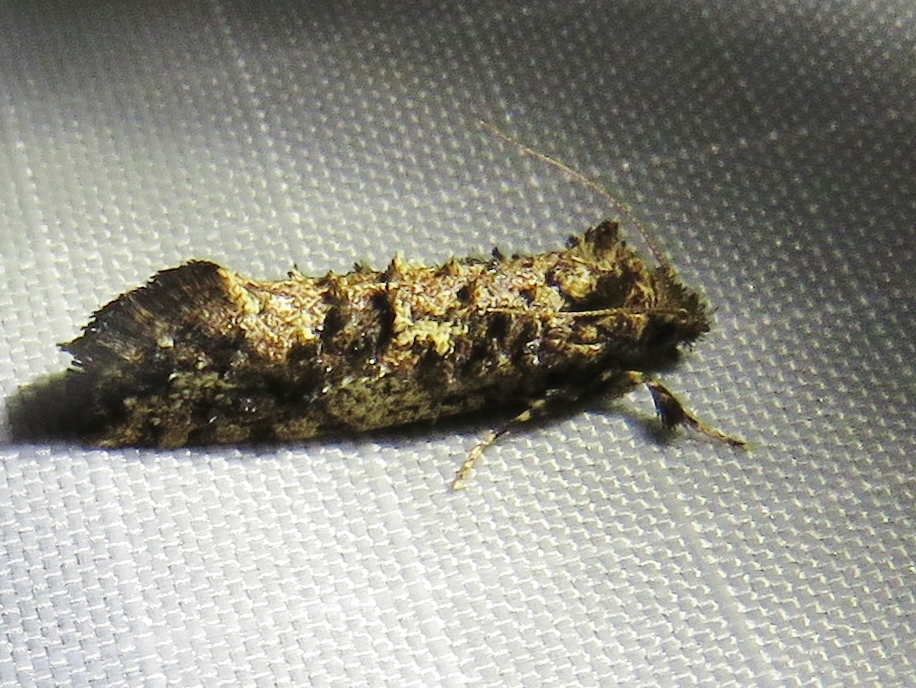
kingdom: Animalia
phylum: Arthropoda
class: Insecta
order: Lepidoptera
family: Tineidae
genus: Acrolophus
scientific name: Acrolophus cressoni
